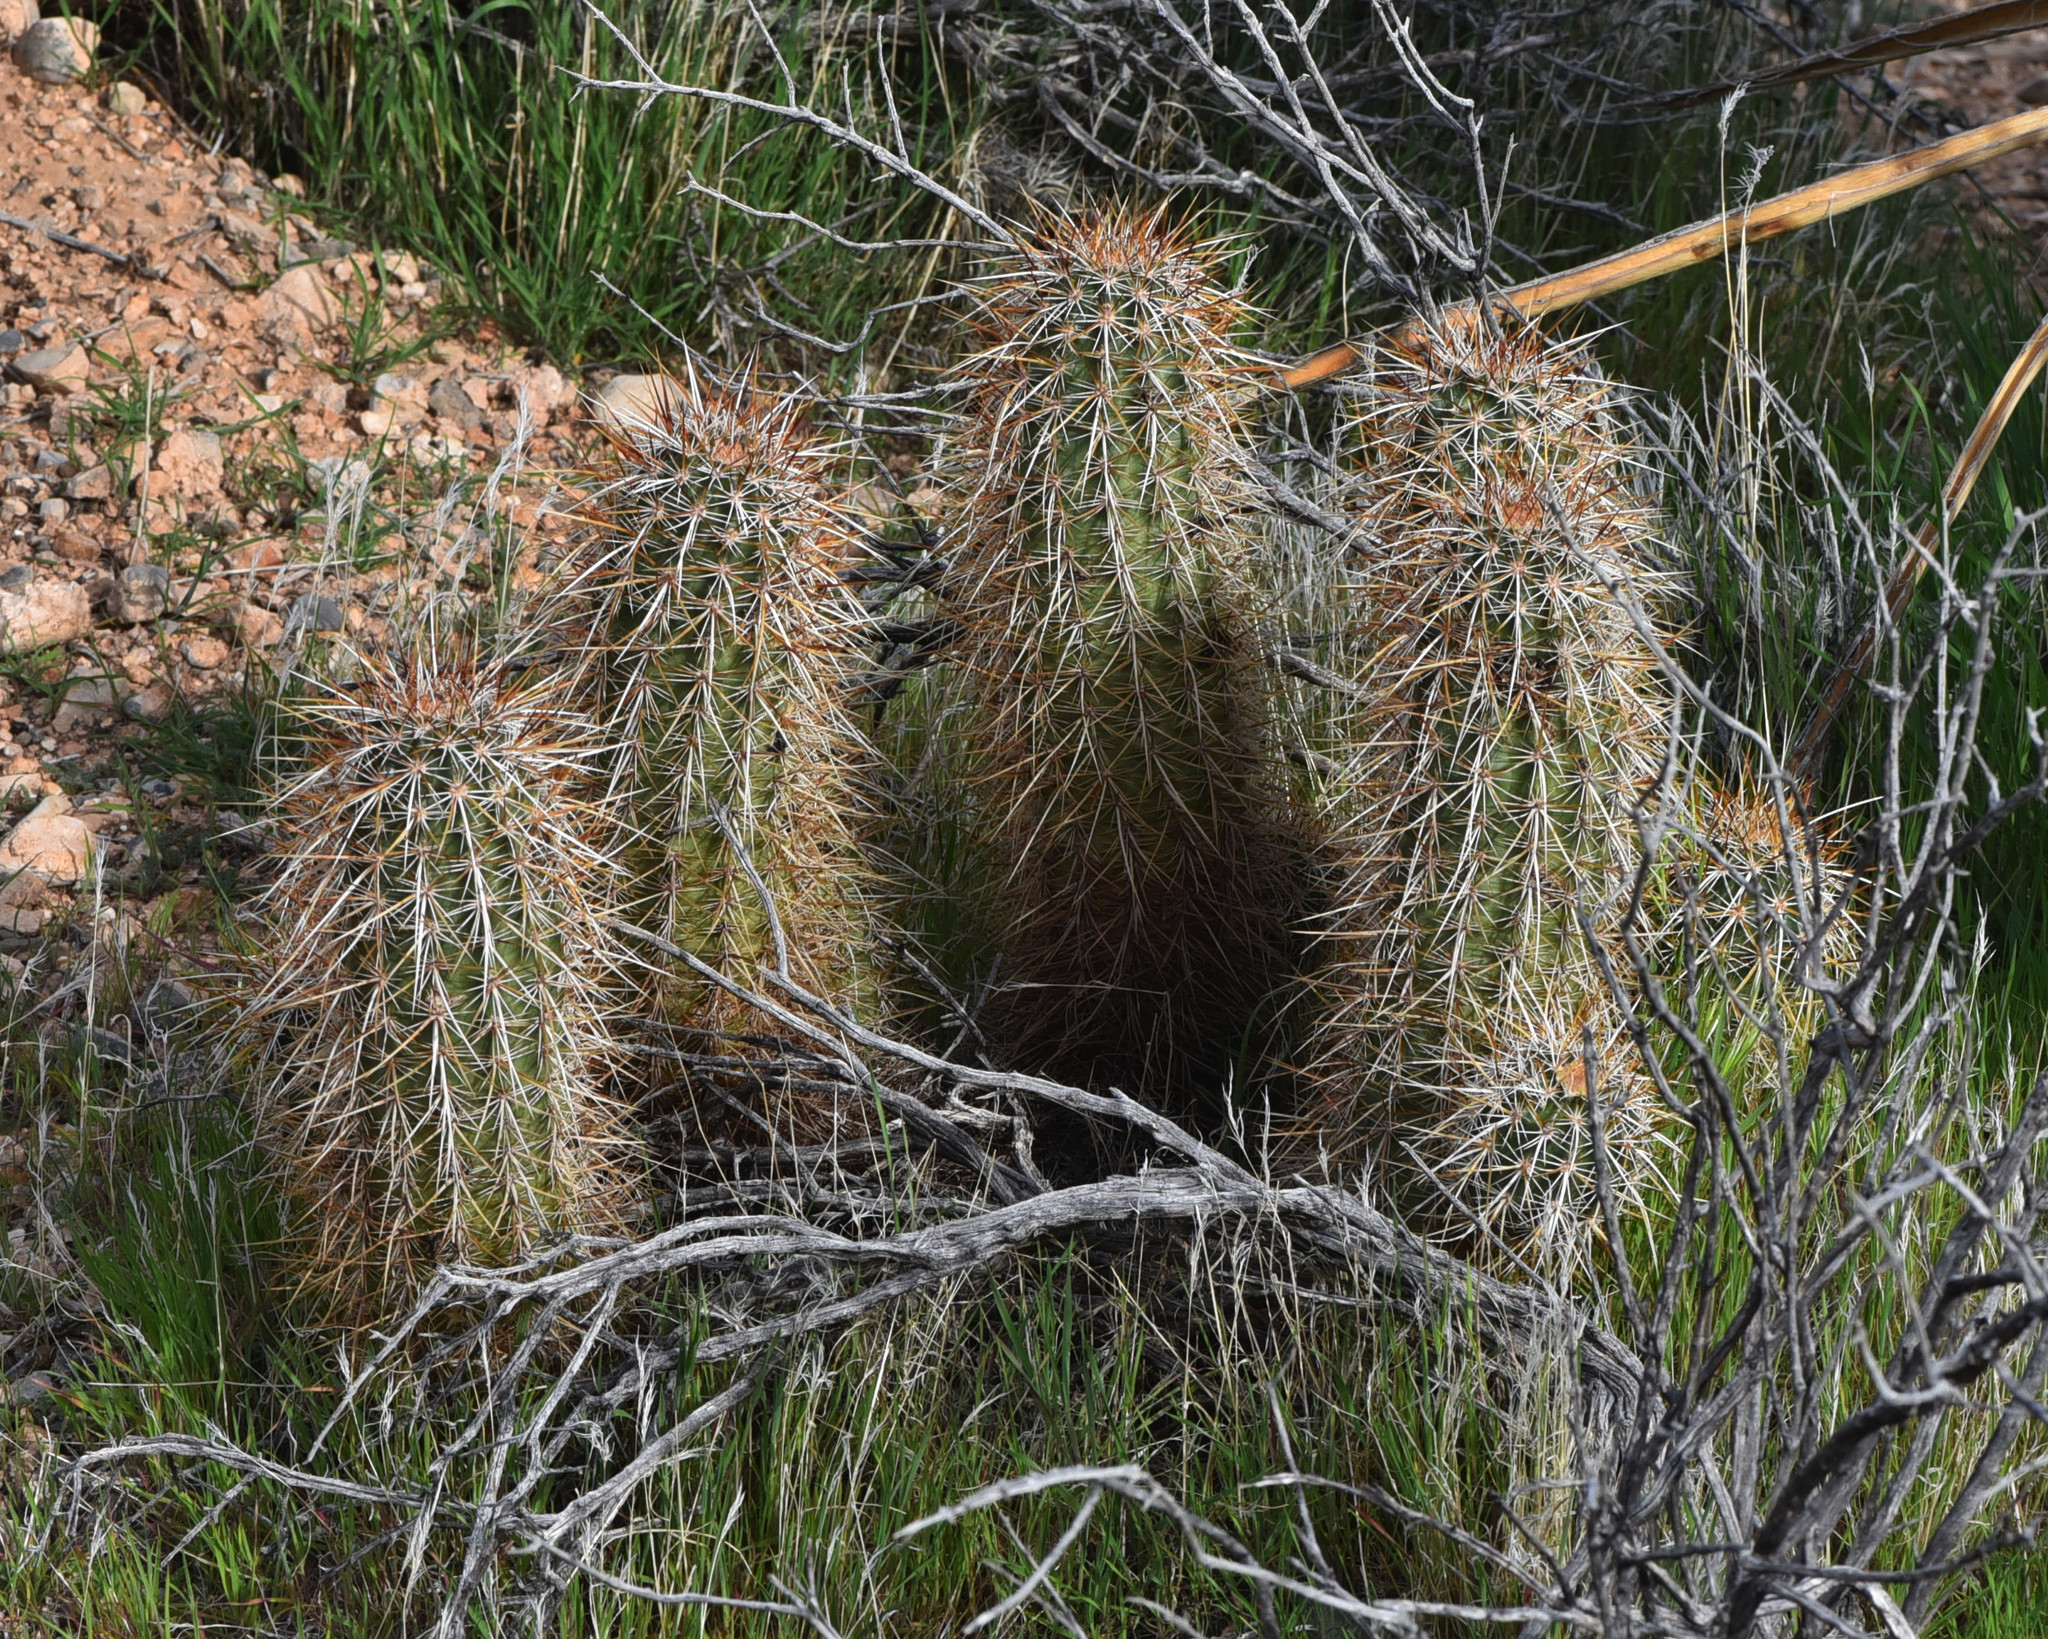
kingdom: Plantae
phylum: Tracheophyta
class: Magnoliopsida
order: Caryophyllales
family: Cactaceae
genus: Echinocereus
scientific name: Echinocereus engelmannii
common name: Engelmann's hedgehog cactus
